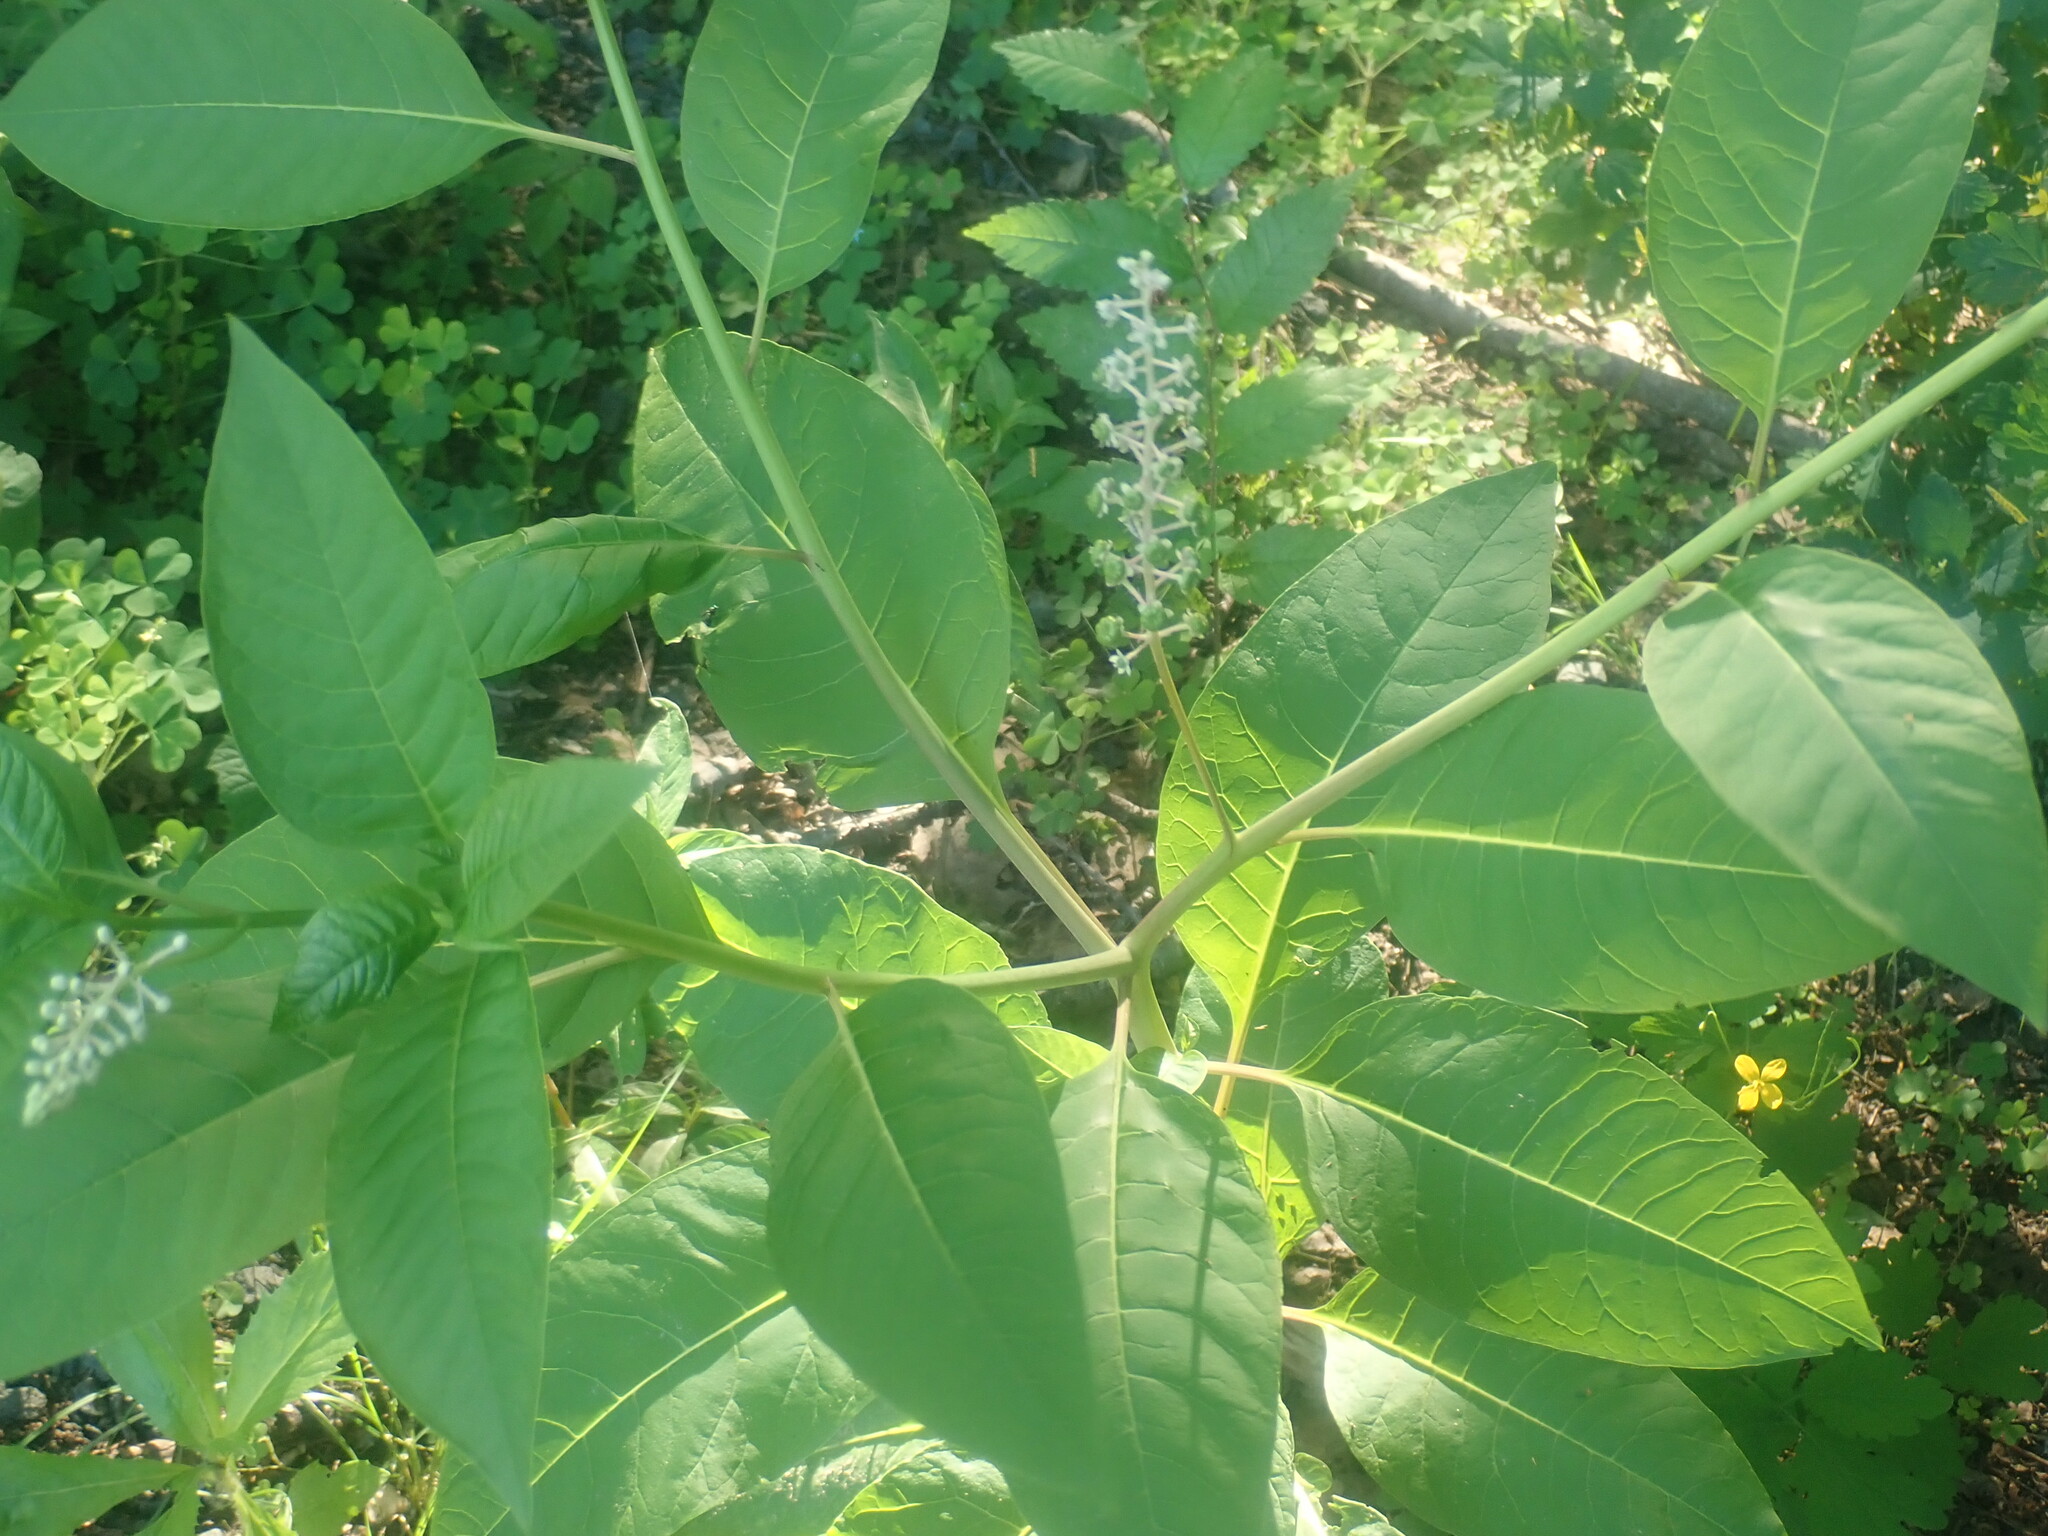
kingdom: Plantae
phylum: Tracheophyta
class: Magnoliopsida
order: Caryophyllales
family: Phytolaccaceae
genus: Phytolacca
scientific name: Phytolacca americana
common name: American pokeweed
